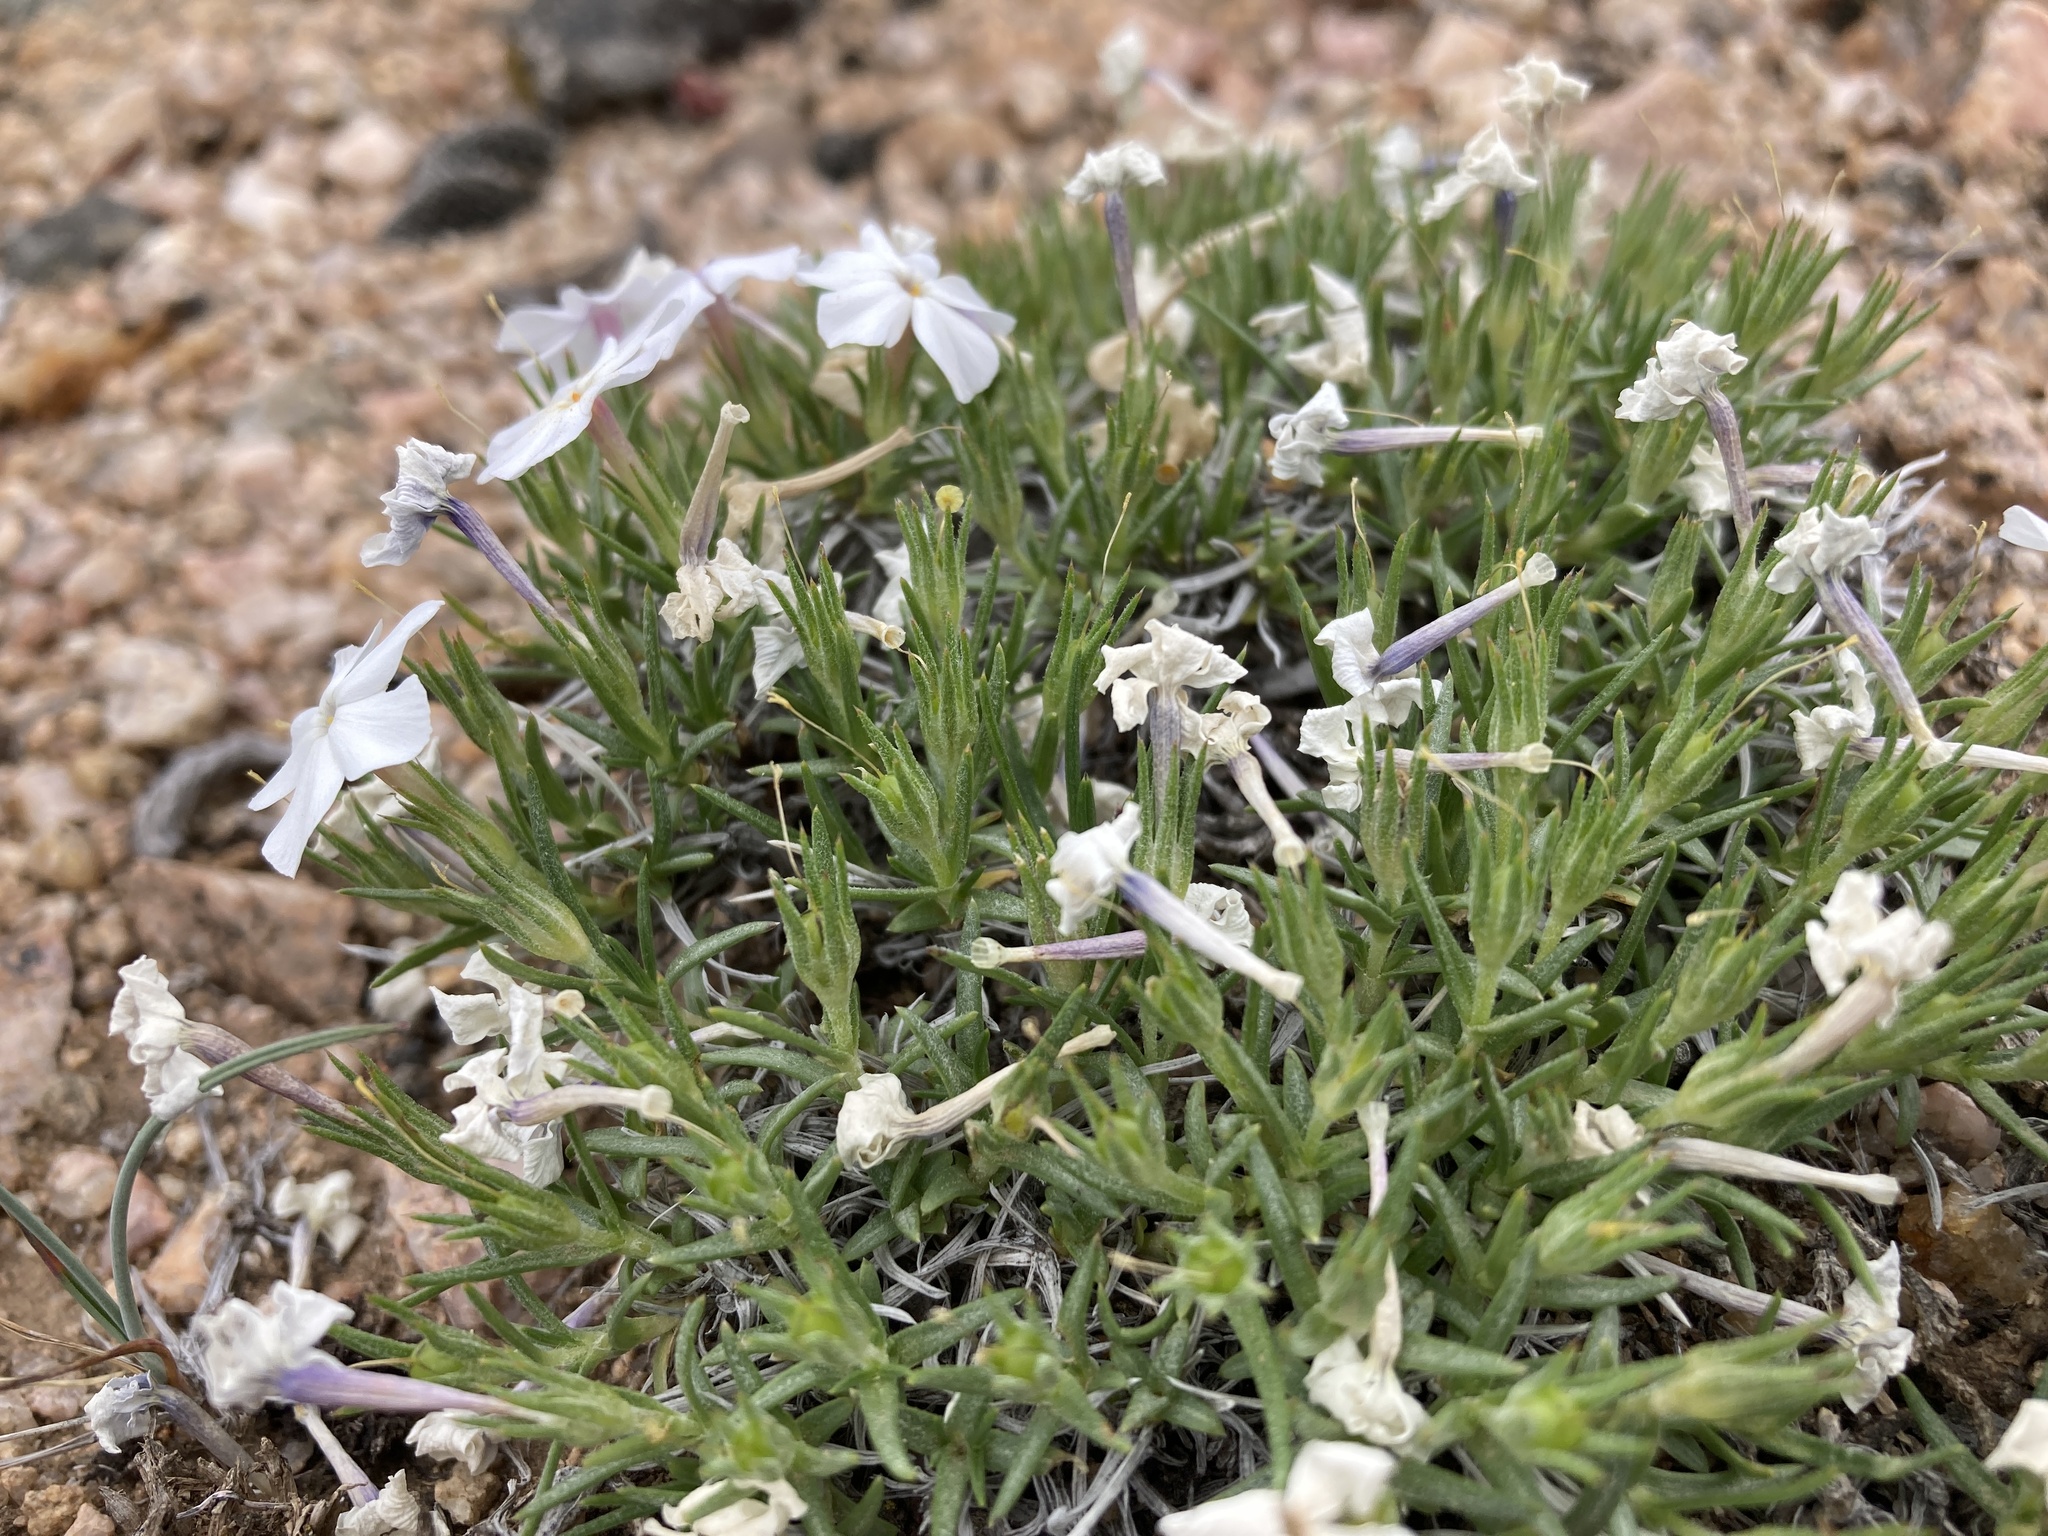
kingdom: Plantae
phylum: Tracheophyta
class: Magnoliopsida
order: Ericales
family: Polemoniaceae
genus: Phlox
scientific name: Phlox multiflora
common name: Rocky mountain phlox
